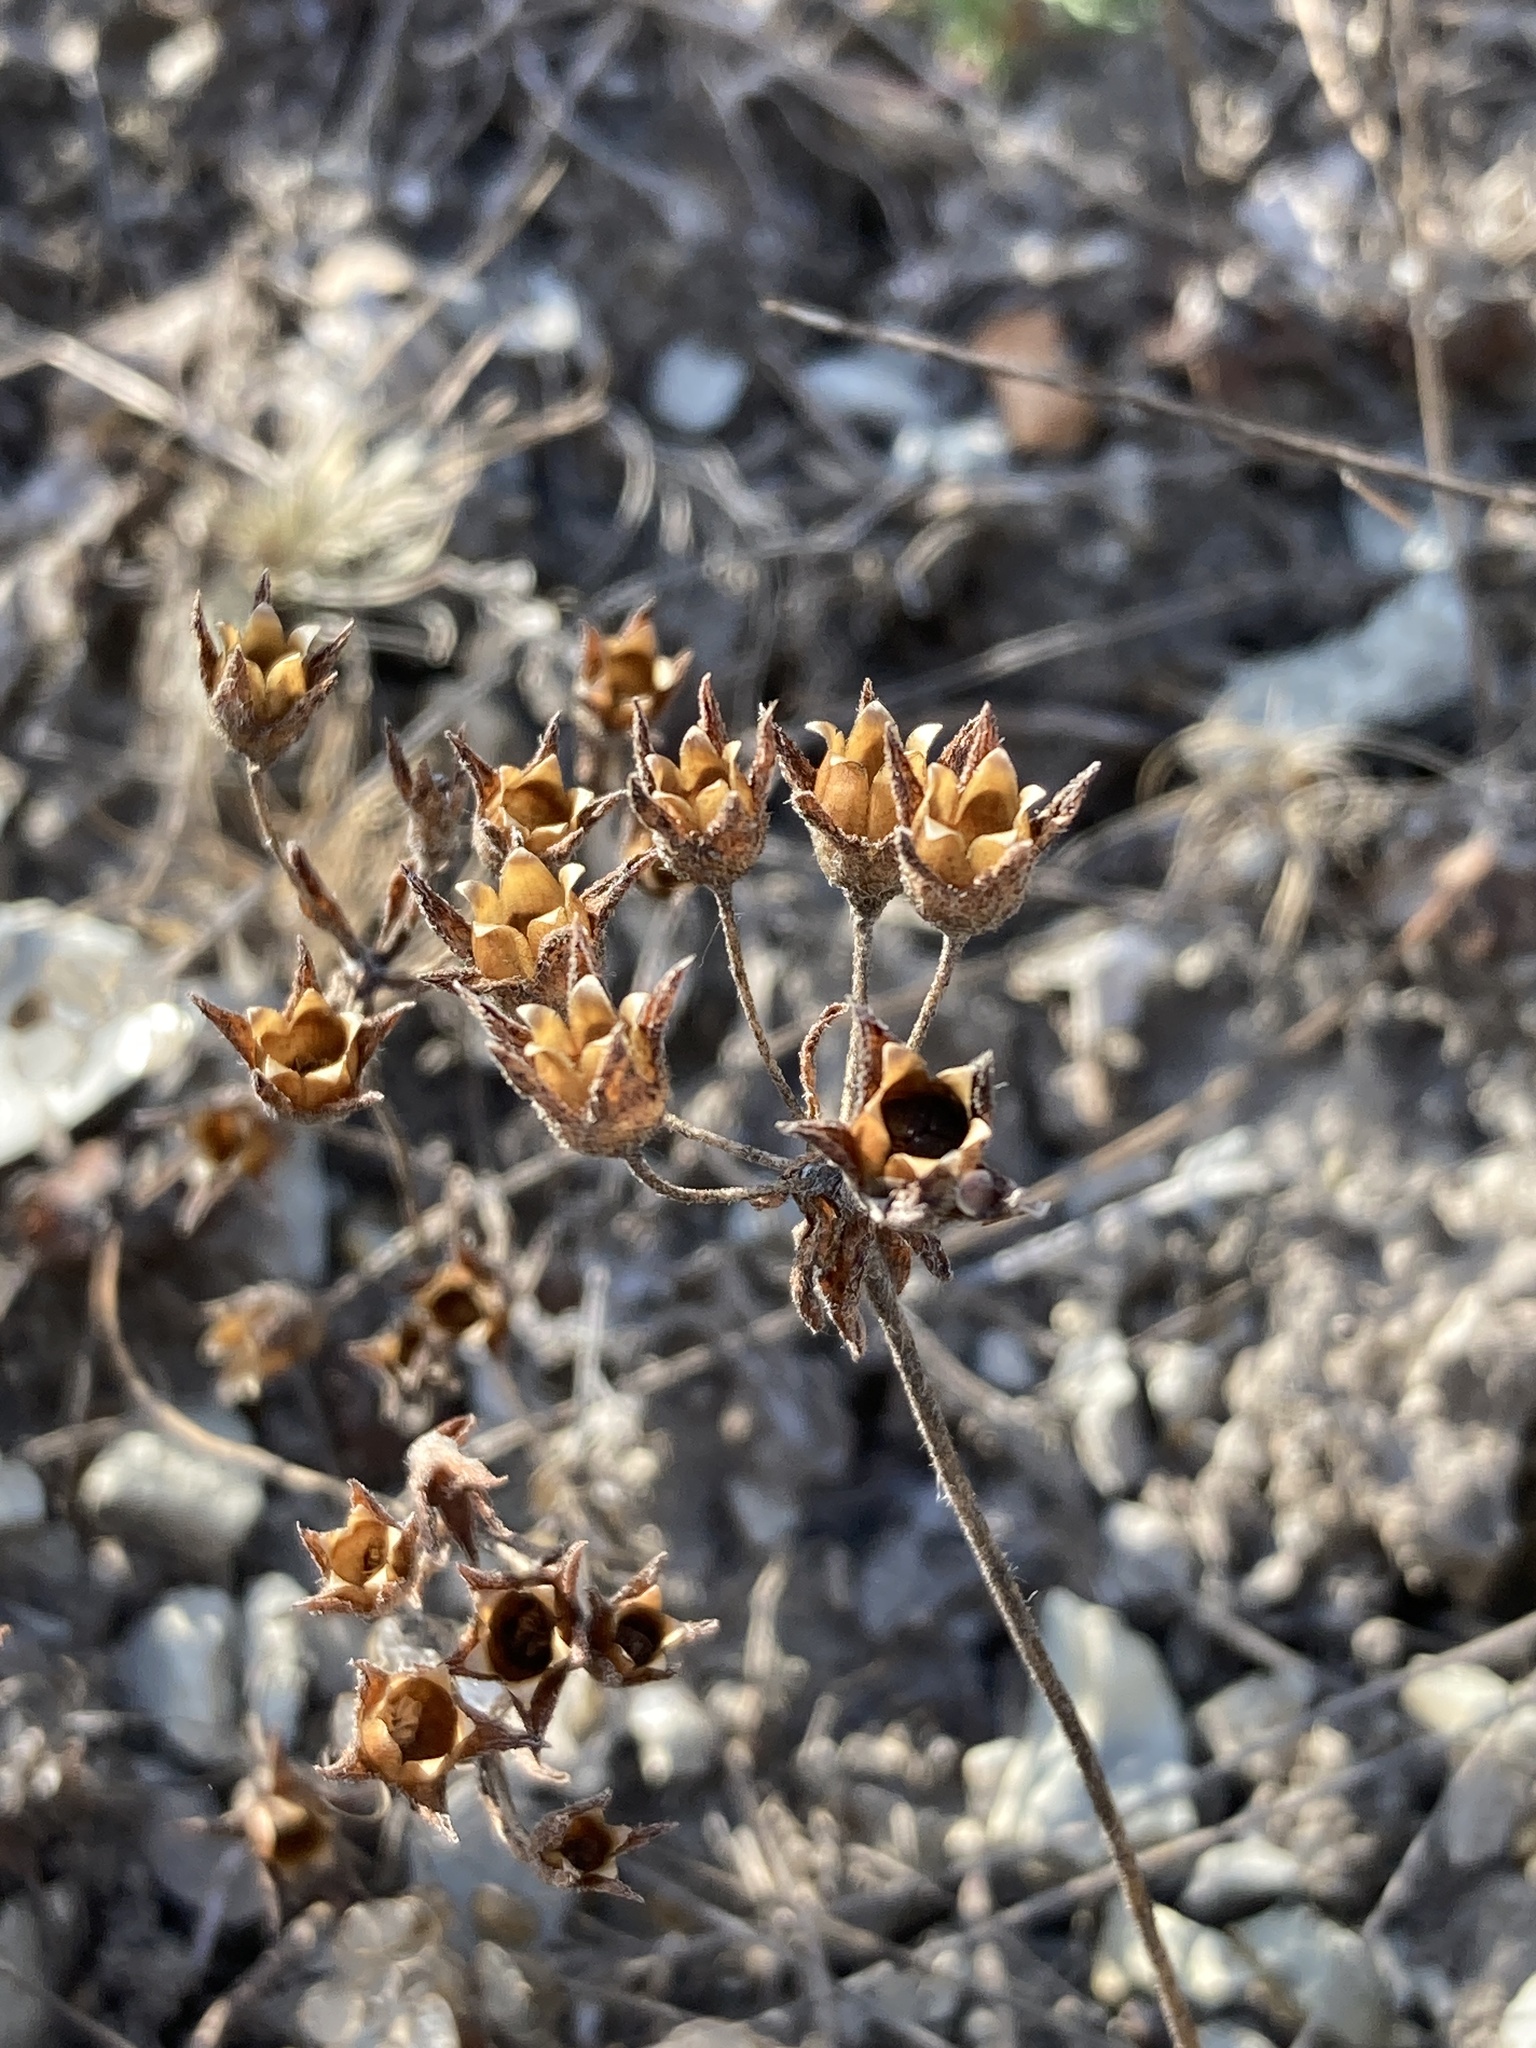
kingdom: Plantae
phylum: Tracheophyta
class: Magnoliopsida
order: Ericales
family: Primulaceae
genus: Androsace
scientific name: Androsace maxima
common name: Annual androsace
